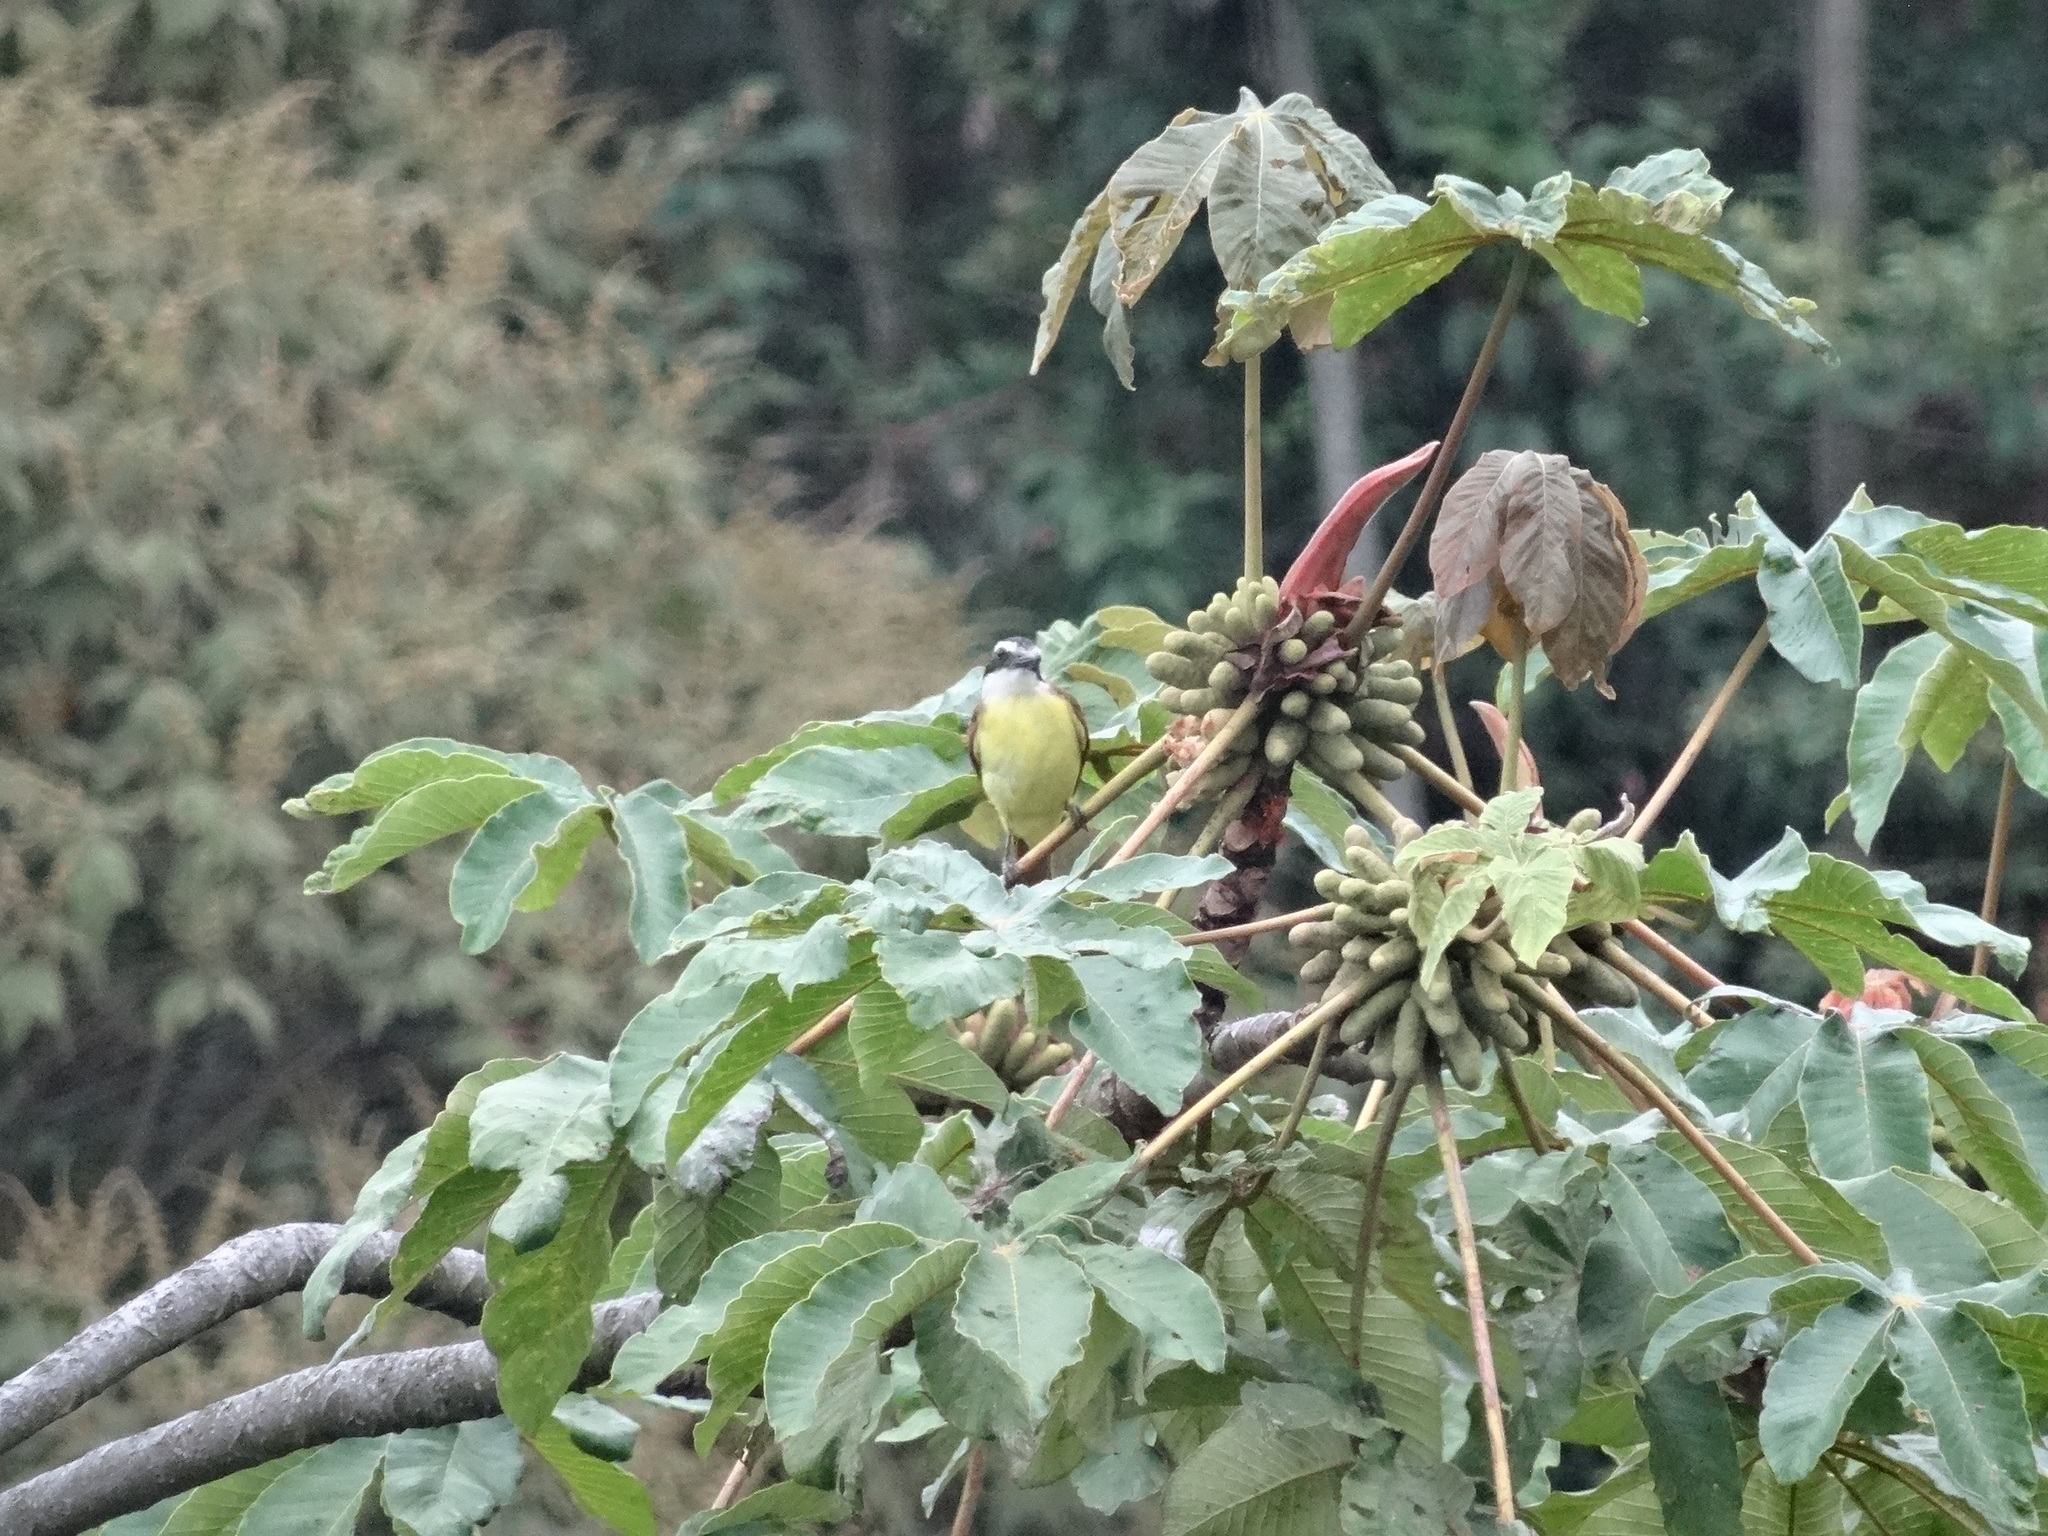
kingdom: Animalia
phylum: Chordata
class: Aves
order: Passeriformes
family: Tyrannidae
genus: Pitangus
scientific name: Pitangus sulphuratus
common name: Great kiskadee
